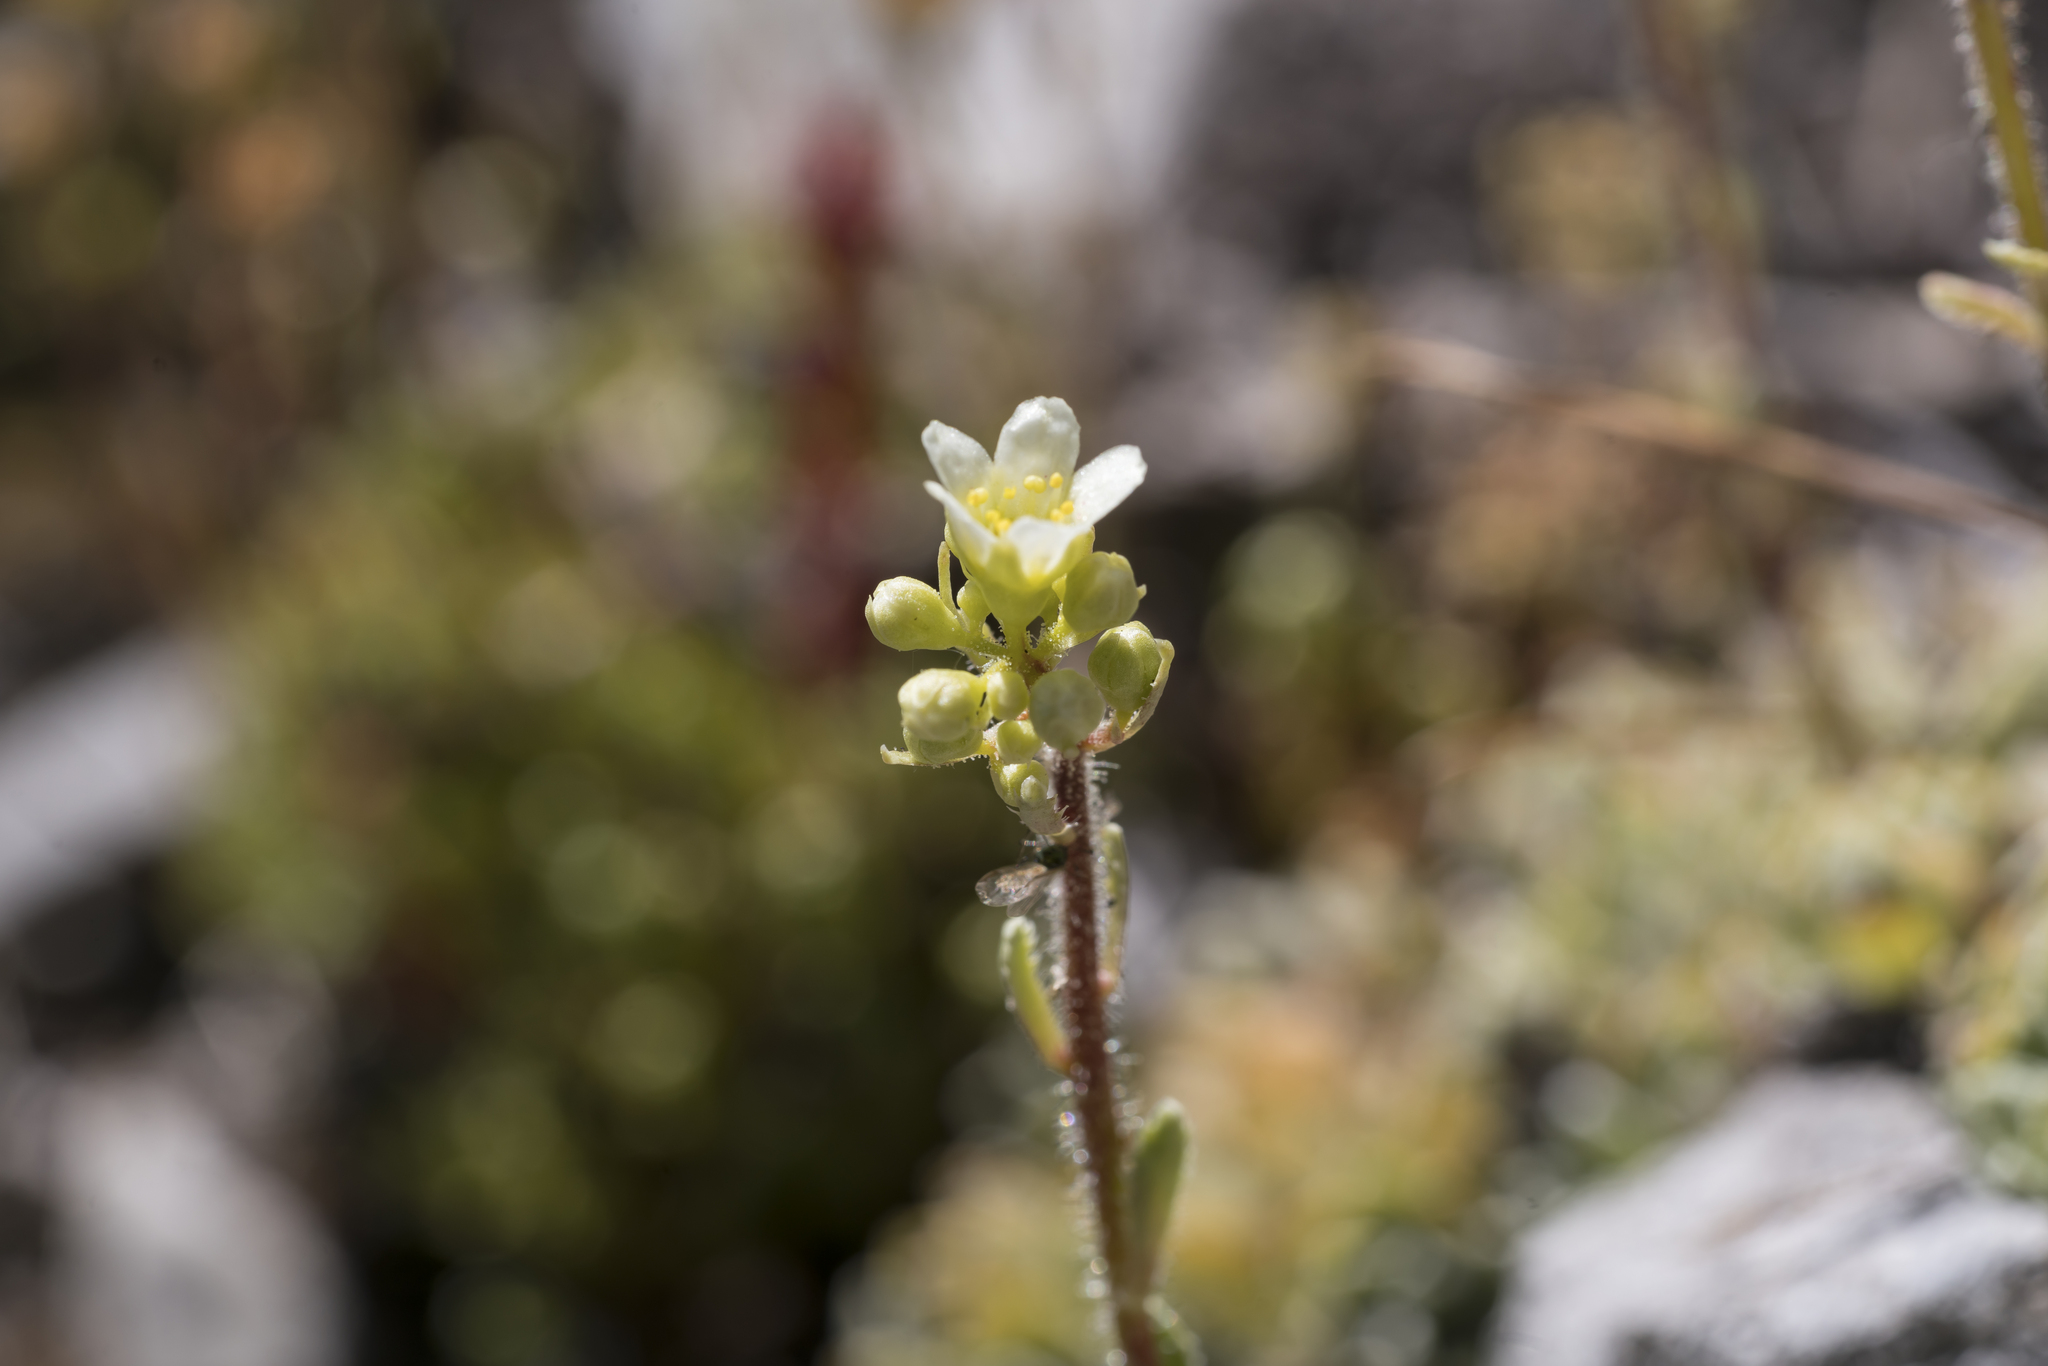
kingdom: Plantae
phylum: Tracheophyta
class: Magnoliopsida
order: Saxifragales
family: Saxifragaceae
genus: Saxifraga
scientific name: Saxifraga paniculata
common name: Livelong saxifrage
